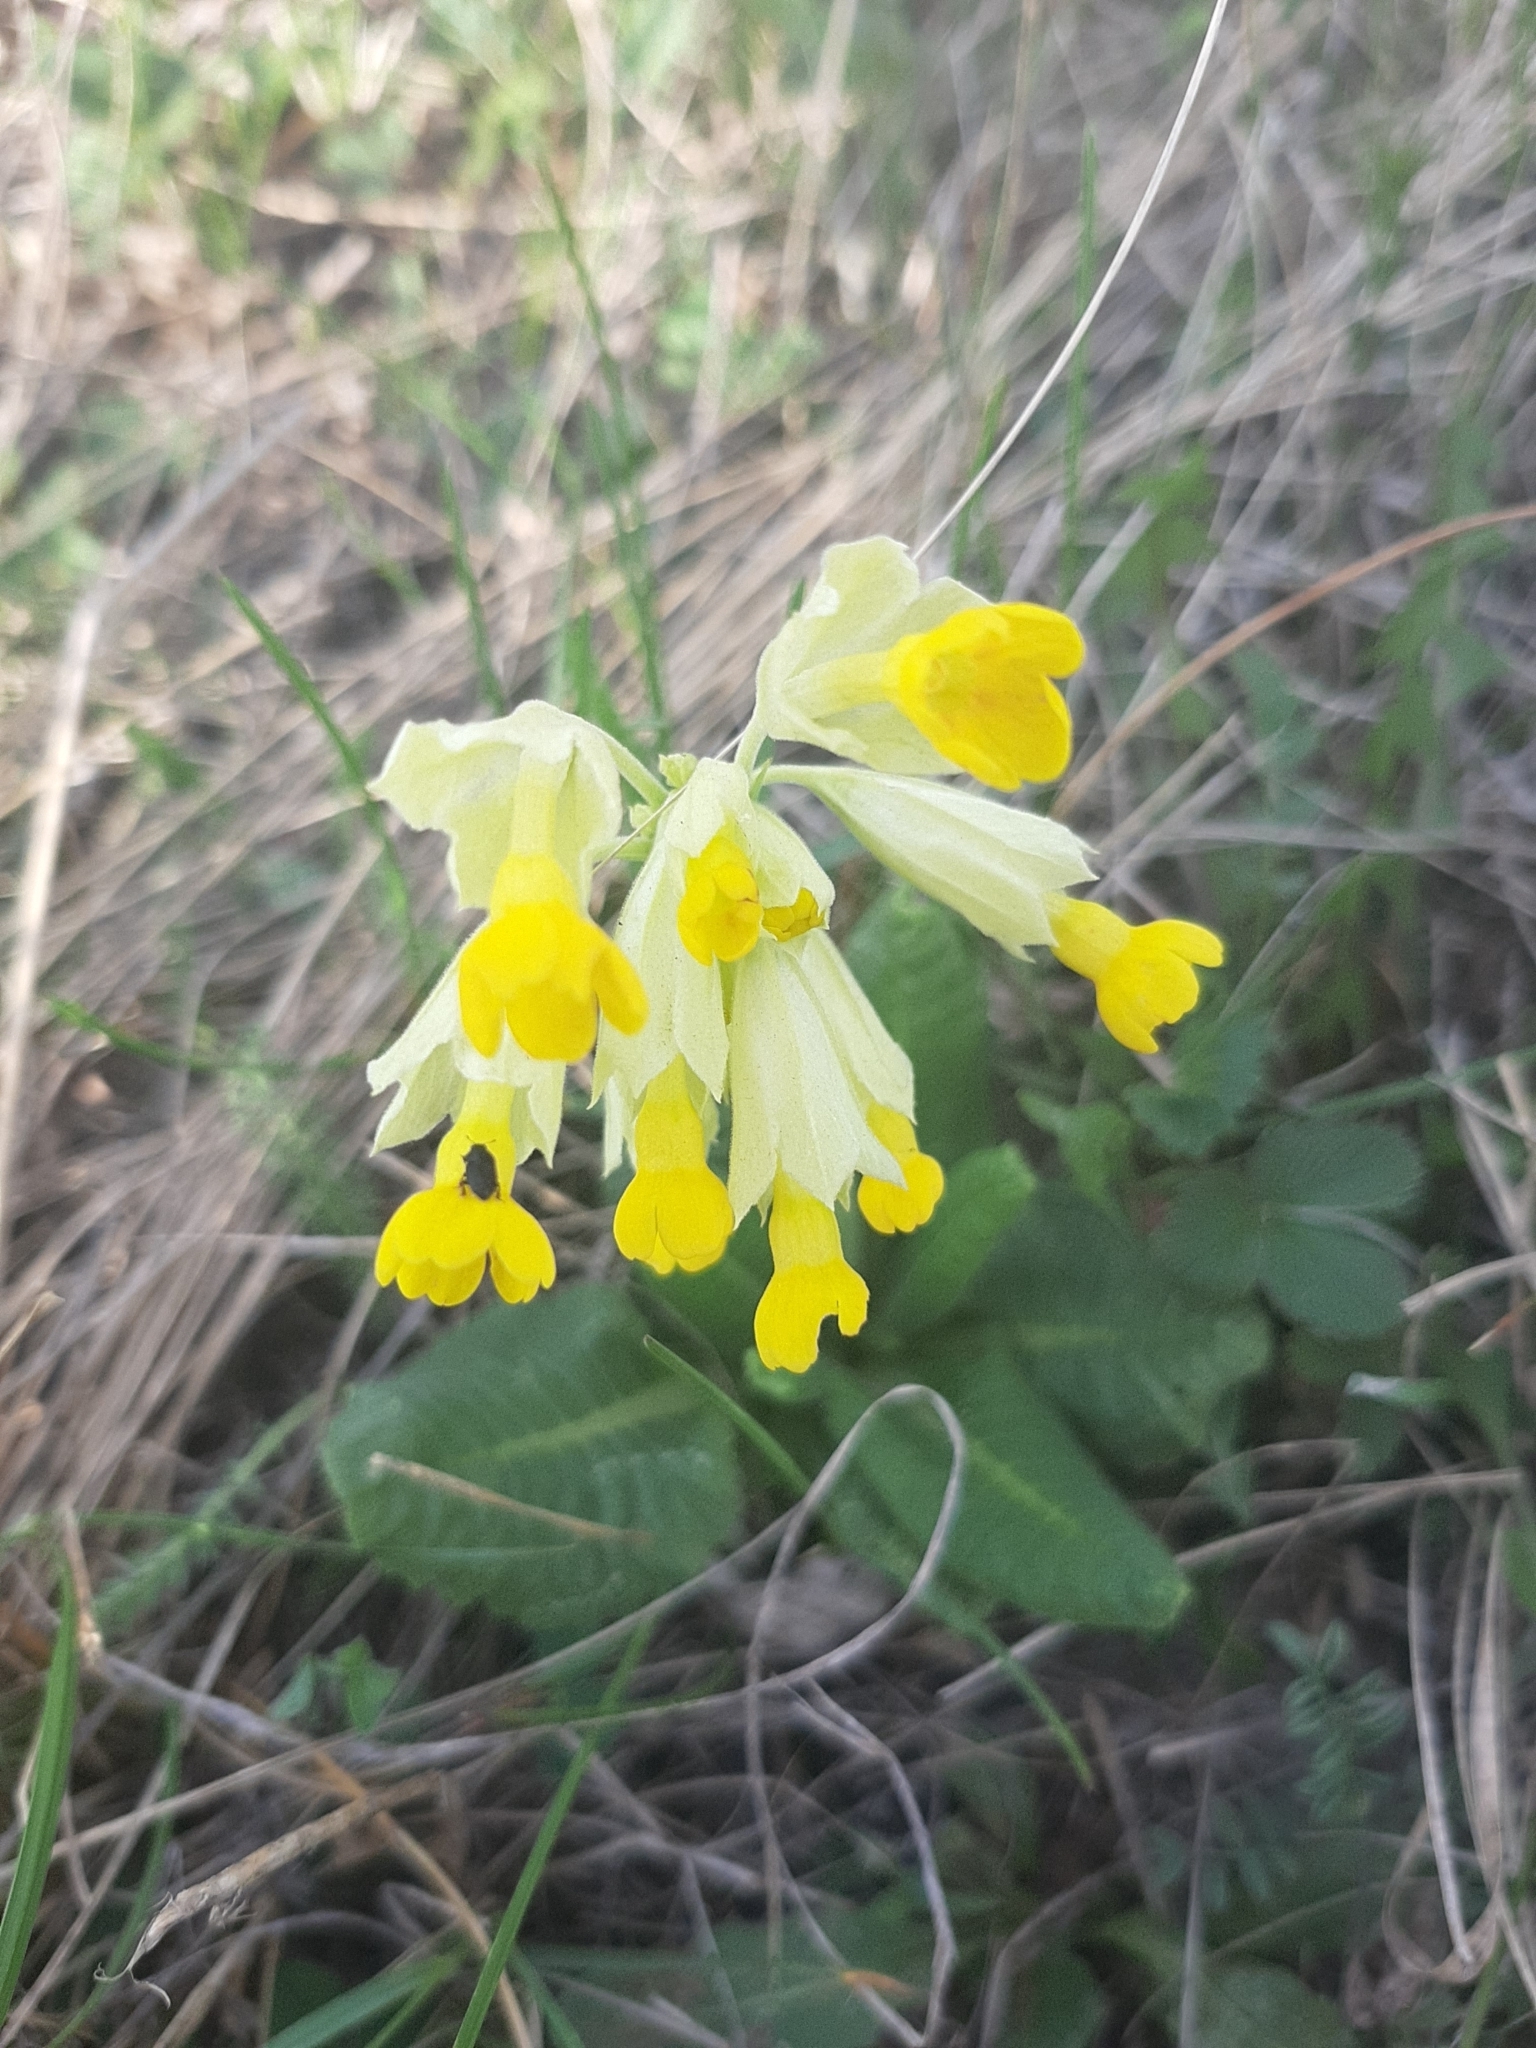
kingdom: Plantae
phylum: Tracheophyta
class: Magnoliopsida
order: Ericales
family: Primulaceae
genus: Primula
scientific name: Primula veris
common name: Cowslip
